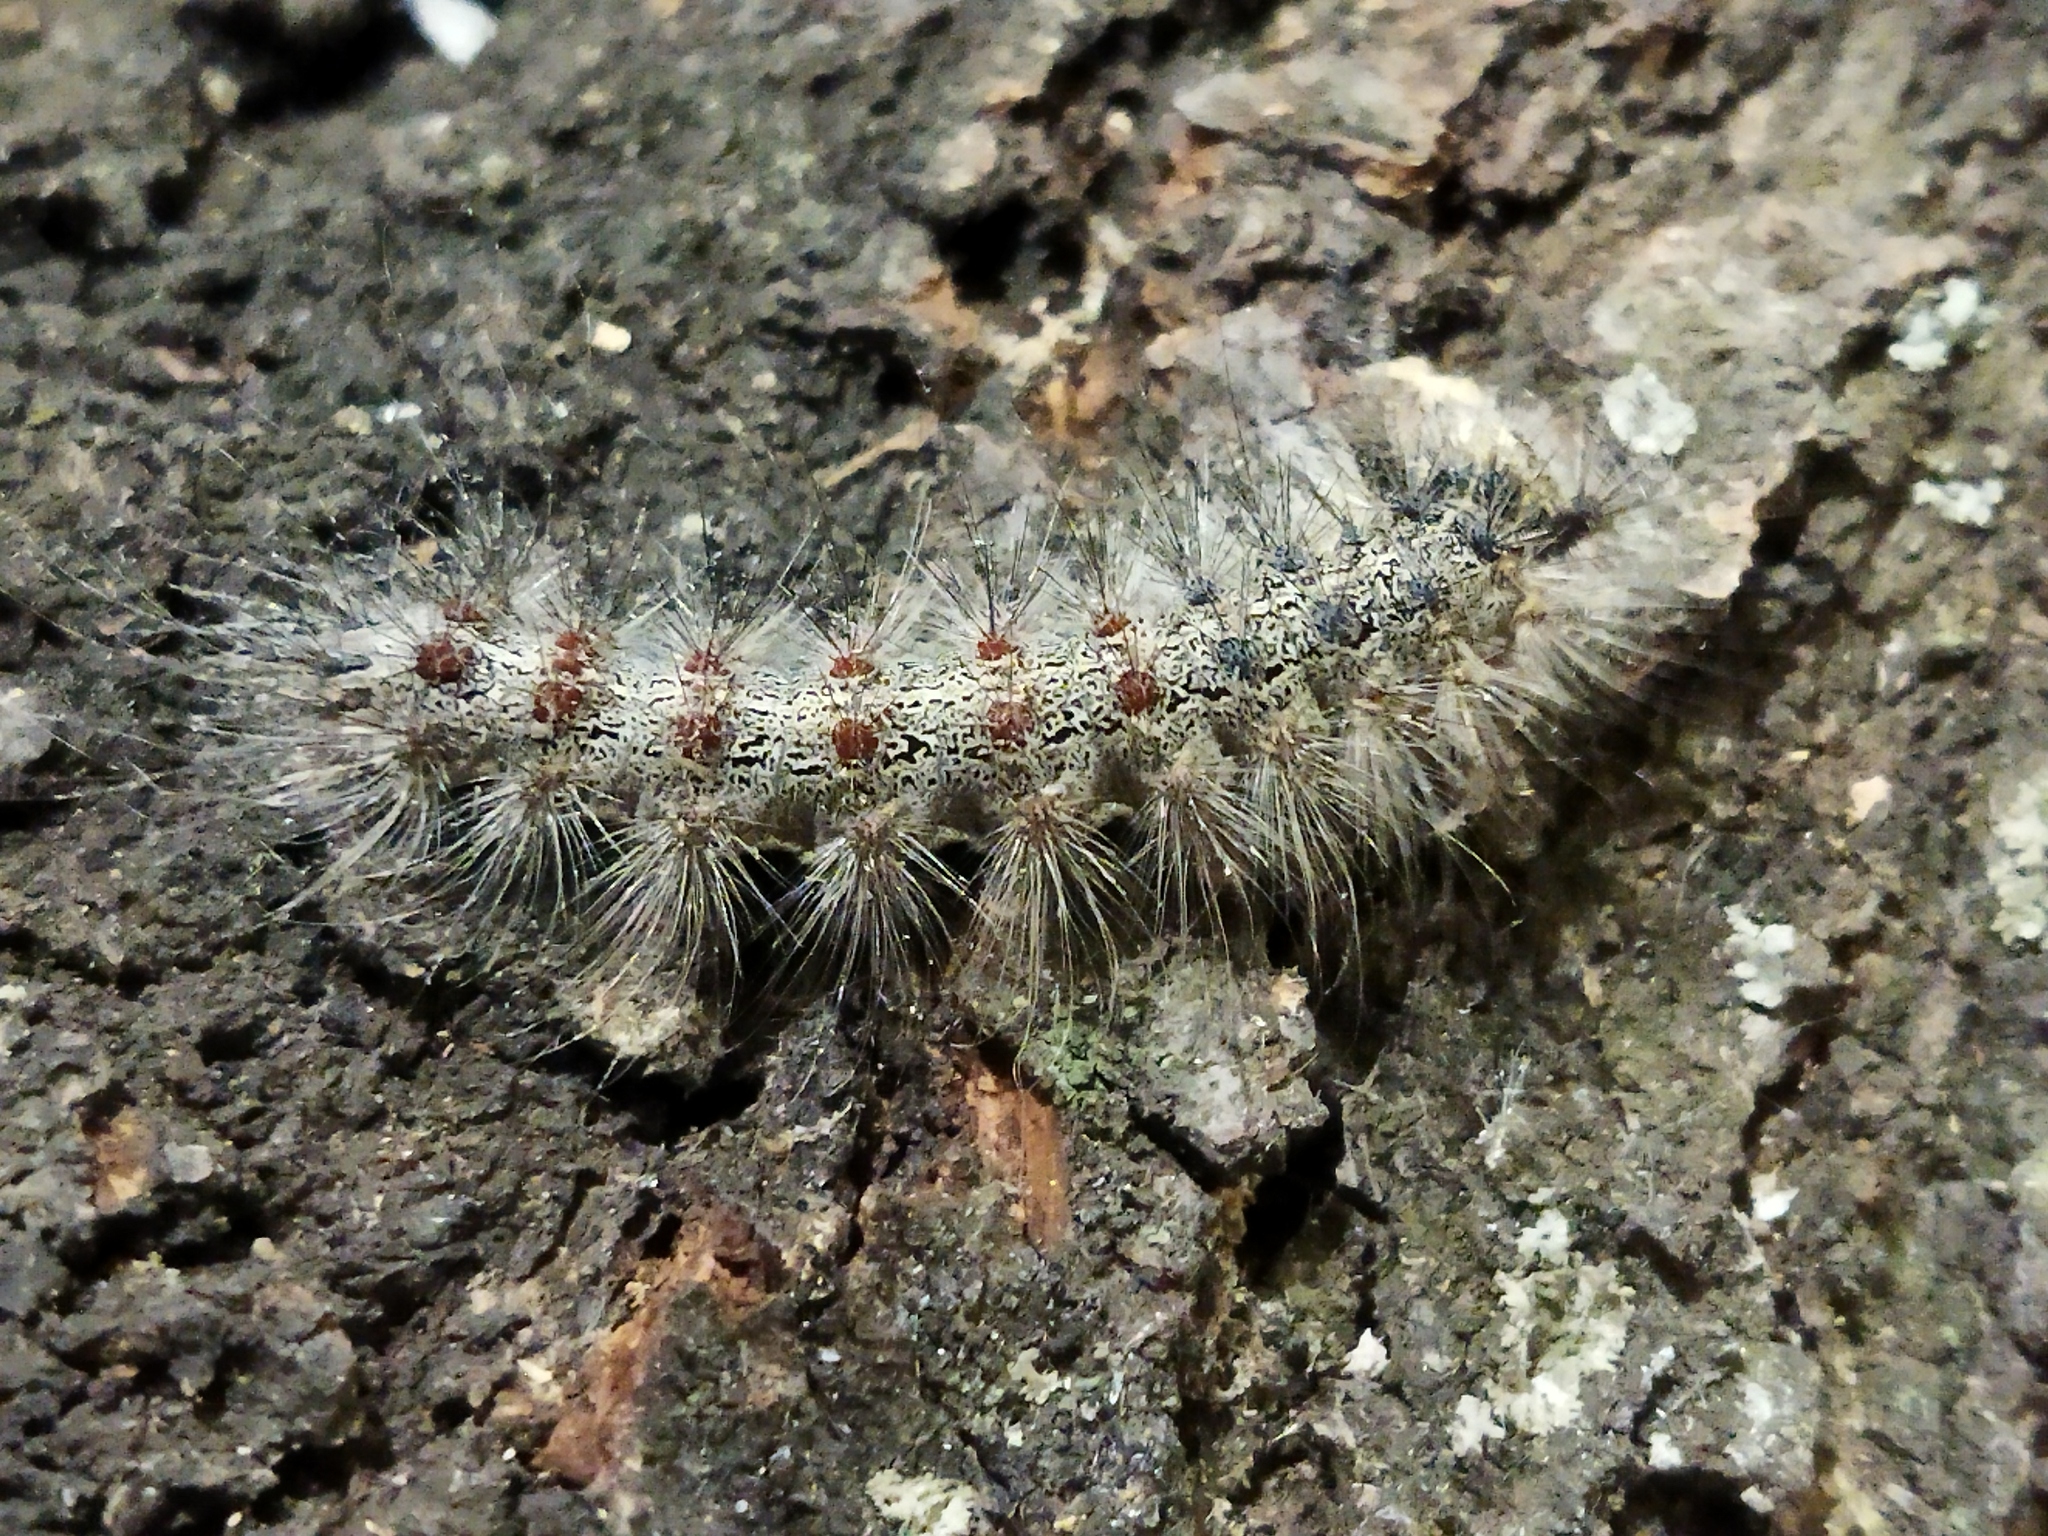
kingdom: Animalia
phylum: Arthropoda
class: Insecta
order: Lepidoptera
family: Erebidae
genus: Lymantria
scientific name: Lymantria dispar
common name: Gypsy moth
